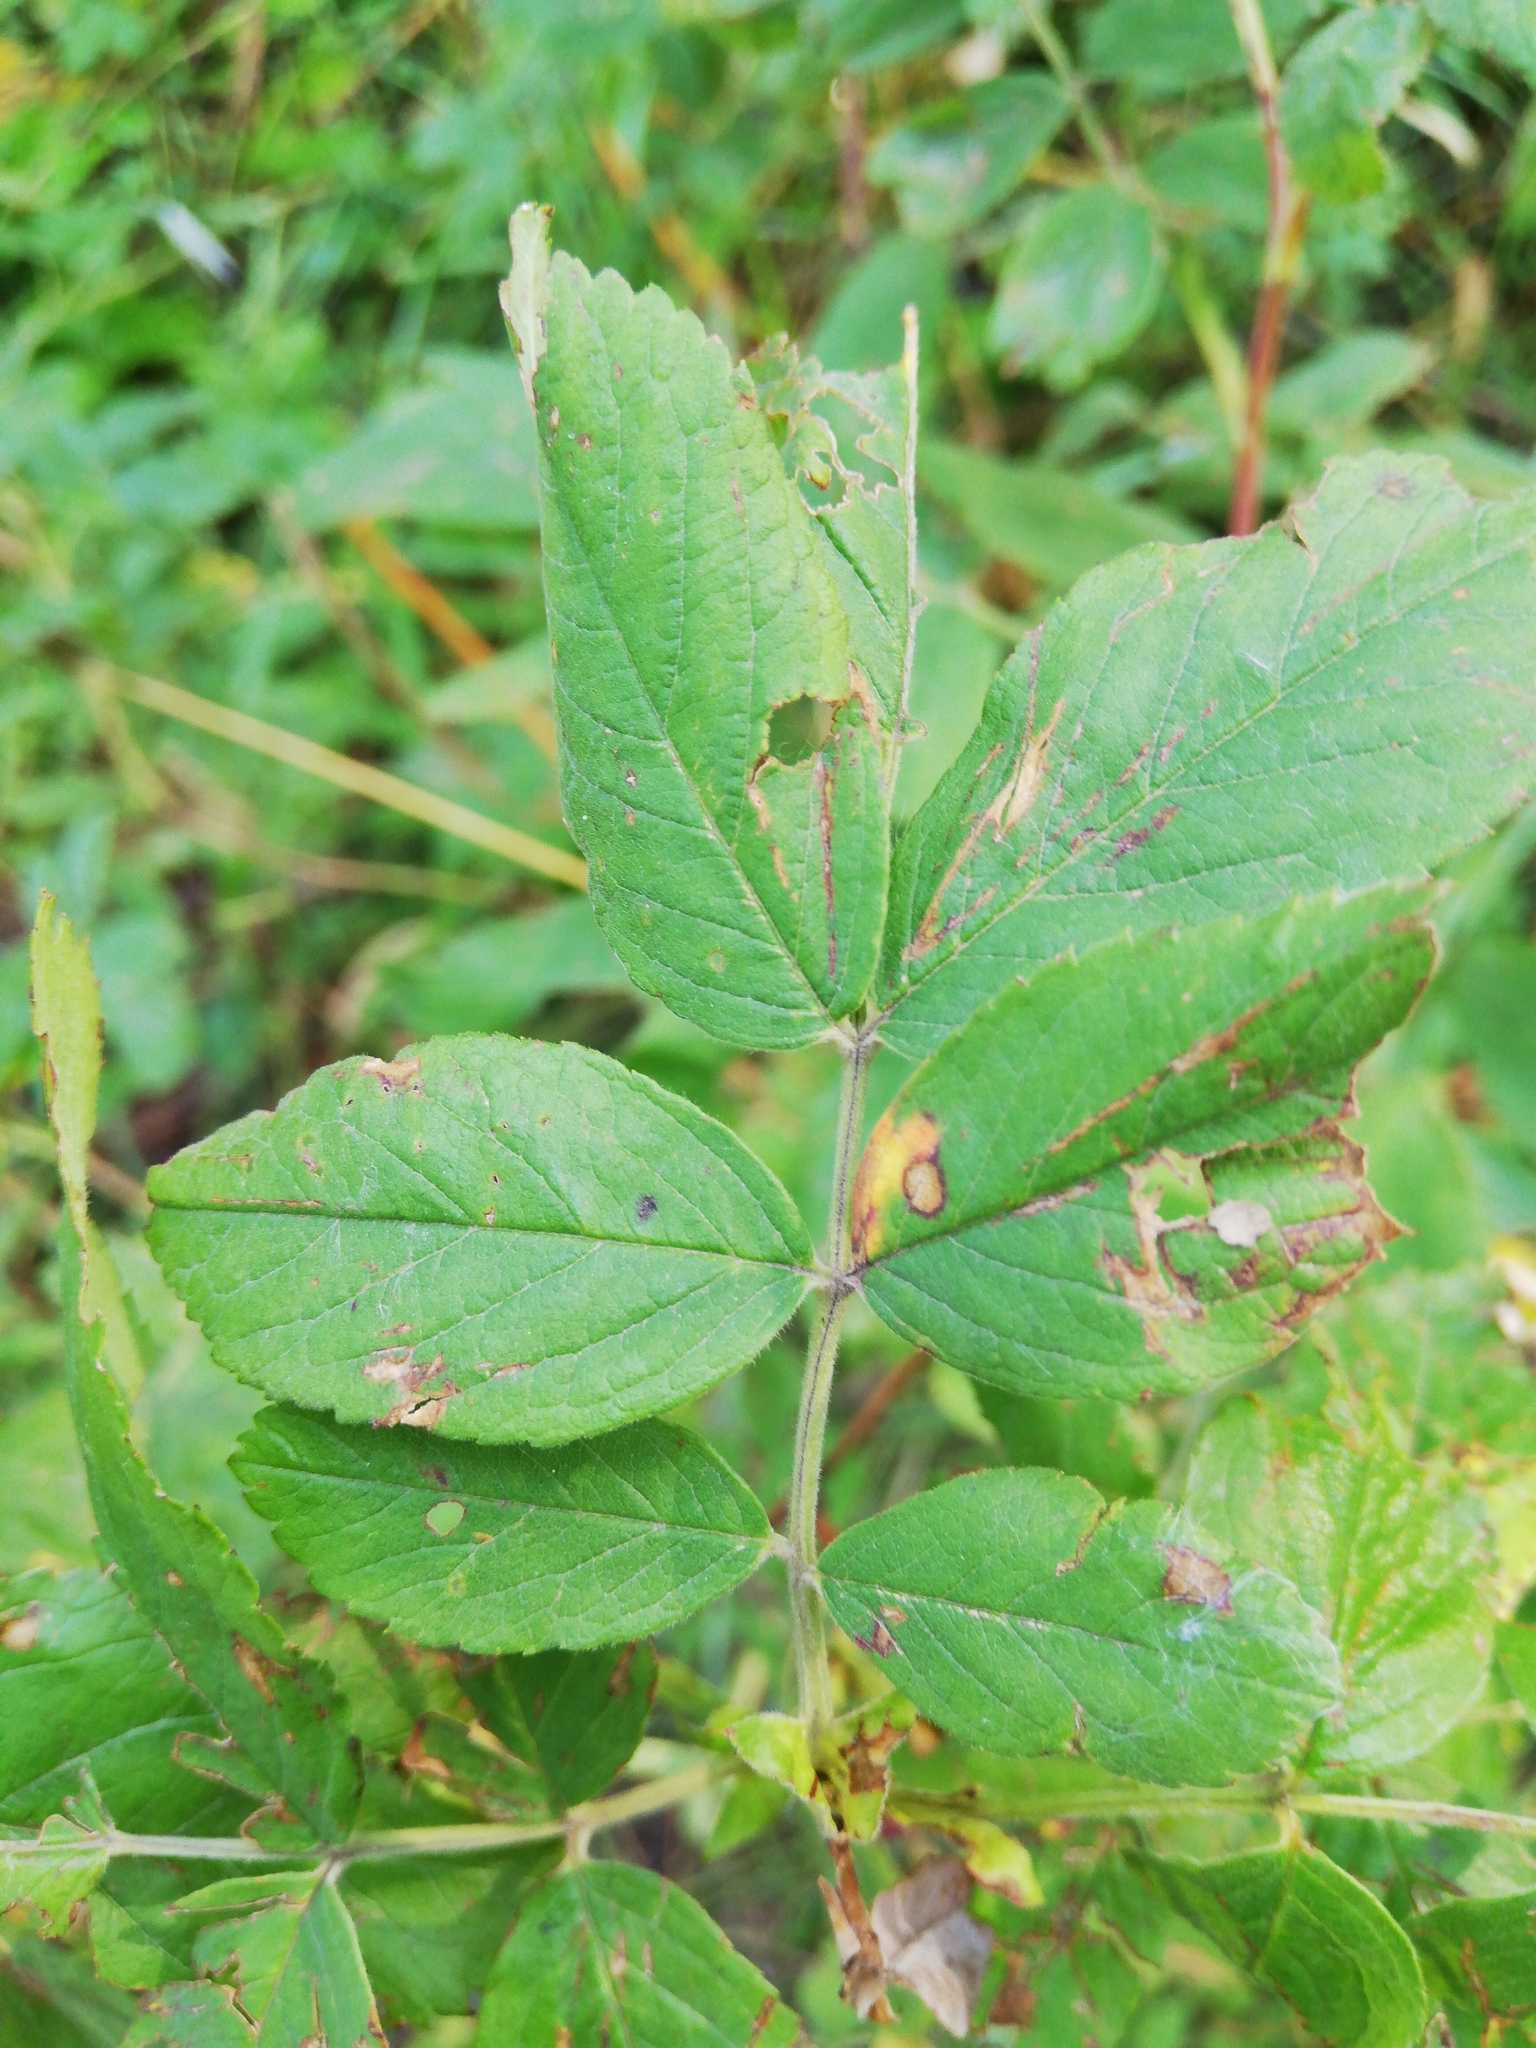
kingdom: Plantae
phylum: Tracheophyta
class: Magnoliopsida
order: Rosales
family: Rosaceae
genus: Rosa
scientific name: Rosa
